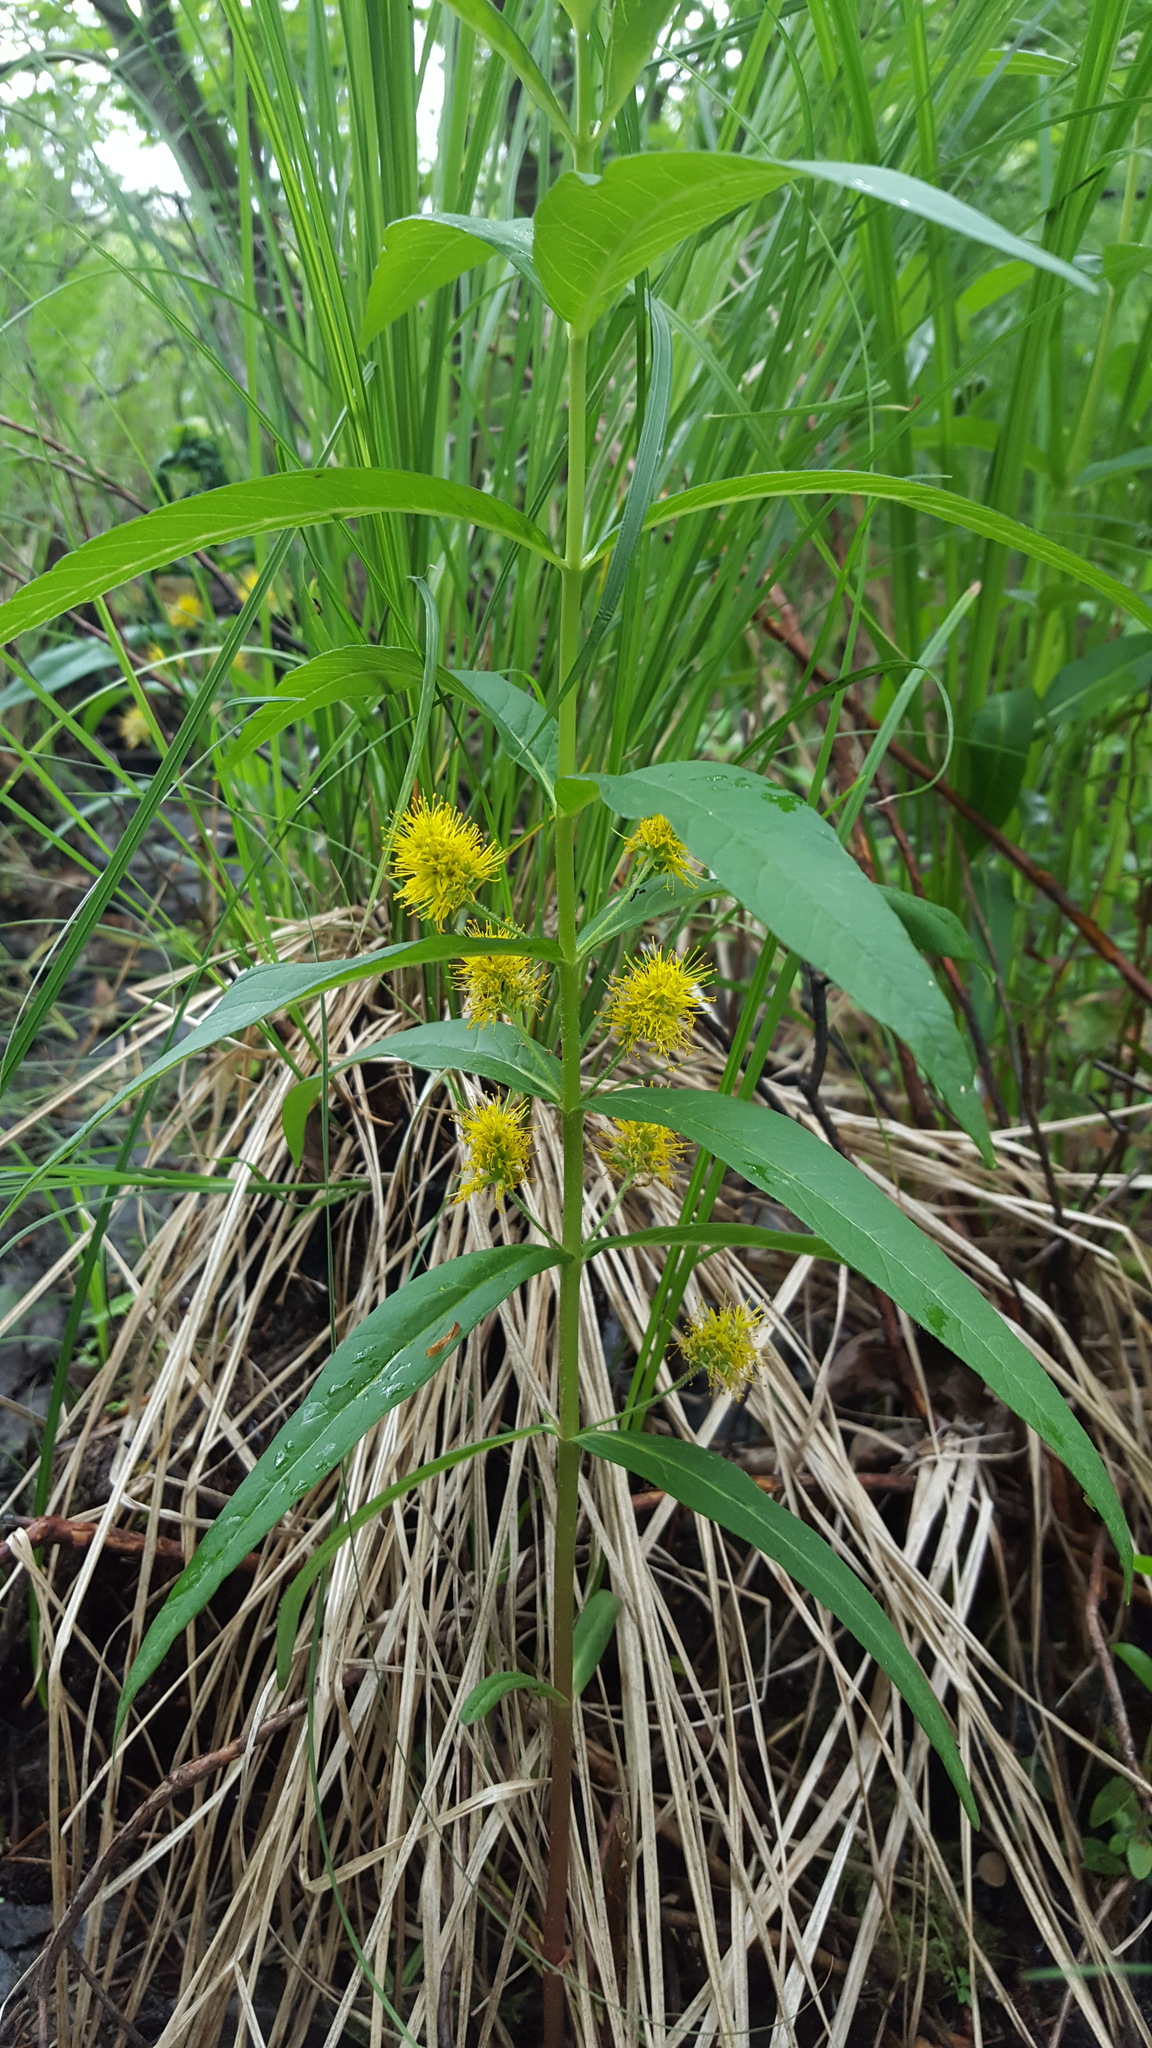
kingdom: Plantae
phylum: Tracheophyta
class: Magnoliopsida
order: Ericales
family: Primulaceae
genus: Lysimachia
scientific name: Lysimachia thyrsiflora
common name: Tufted loosestrife
